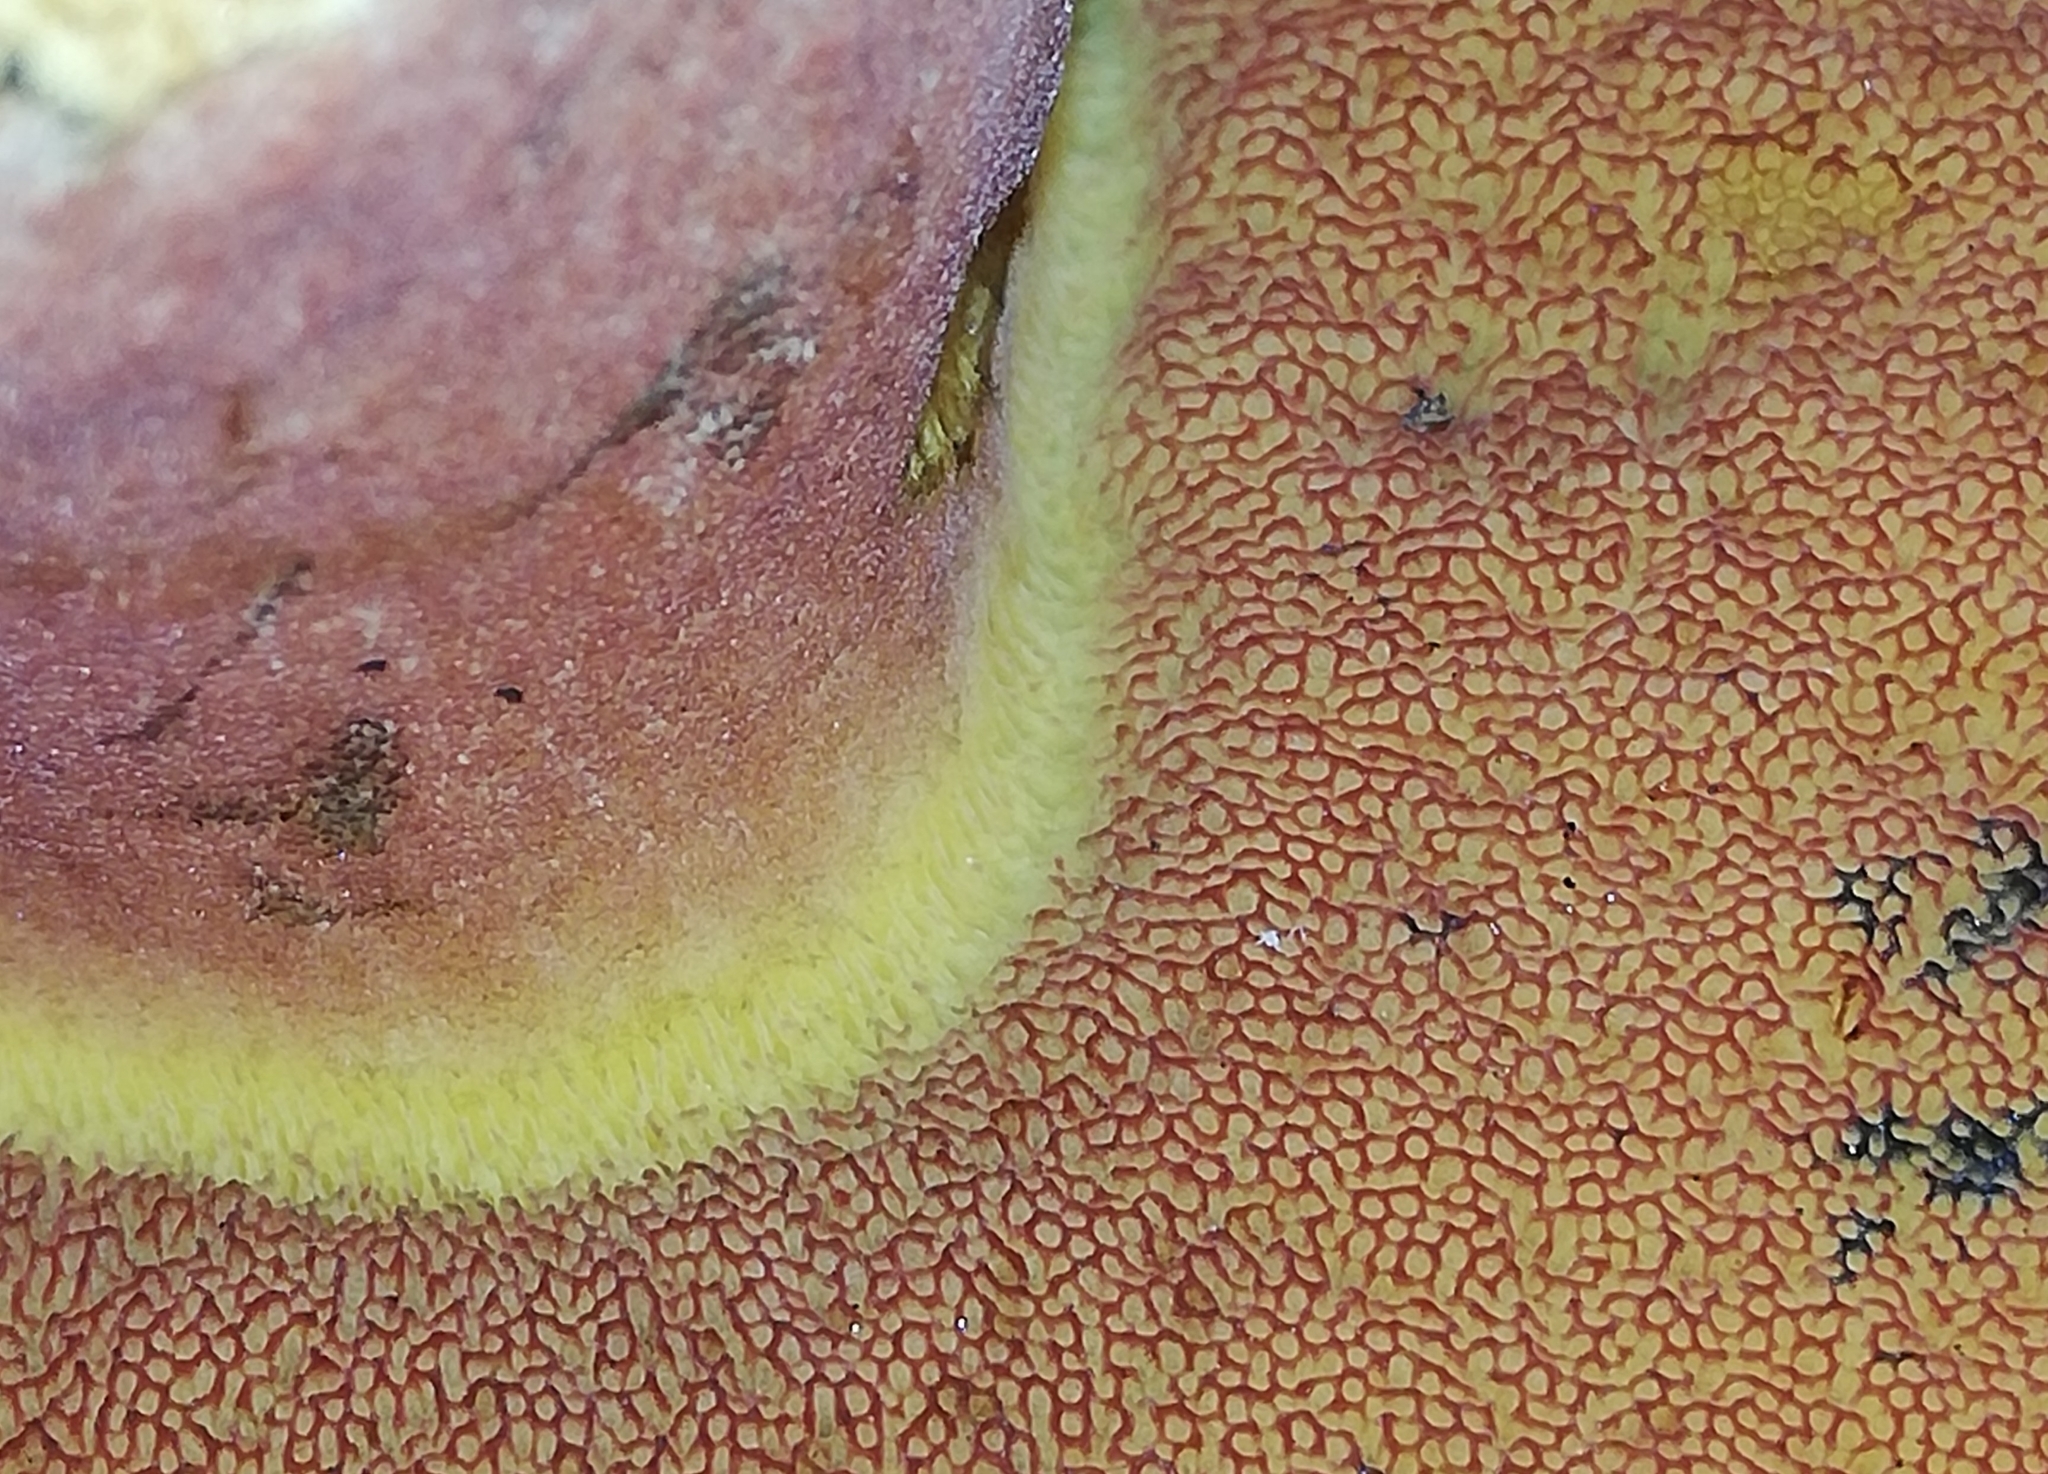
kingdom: Fungi
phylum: Basidiomycota
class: Agaricomycetes
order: Boletales
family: Boletaceae
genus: Neoboletus
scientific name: Neoboletus erythropus
